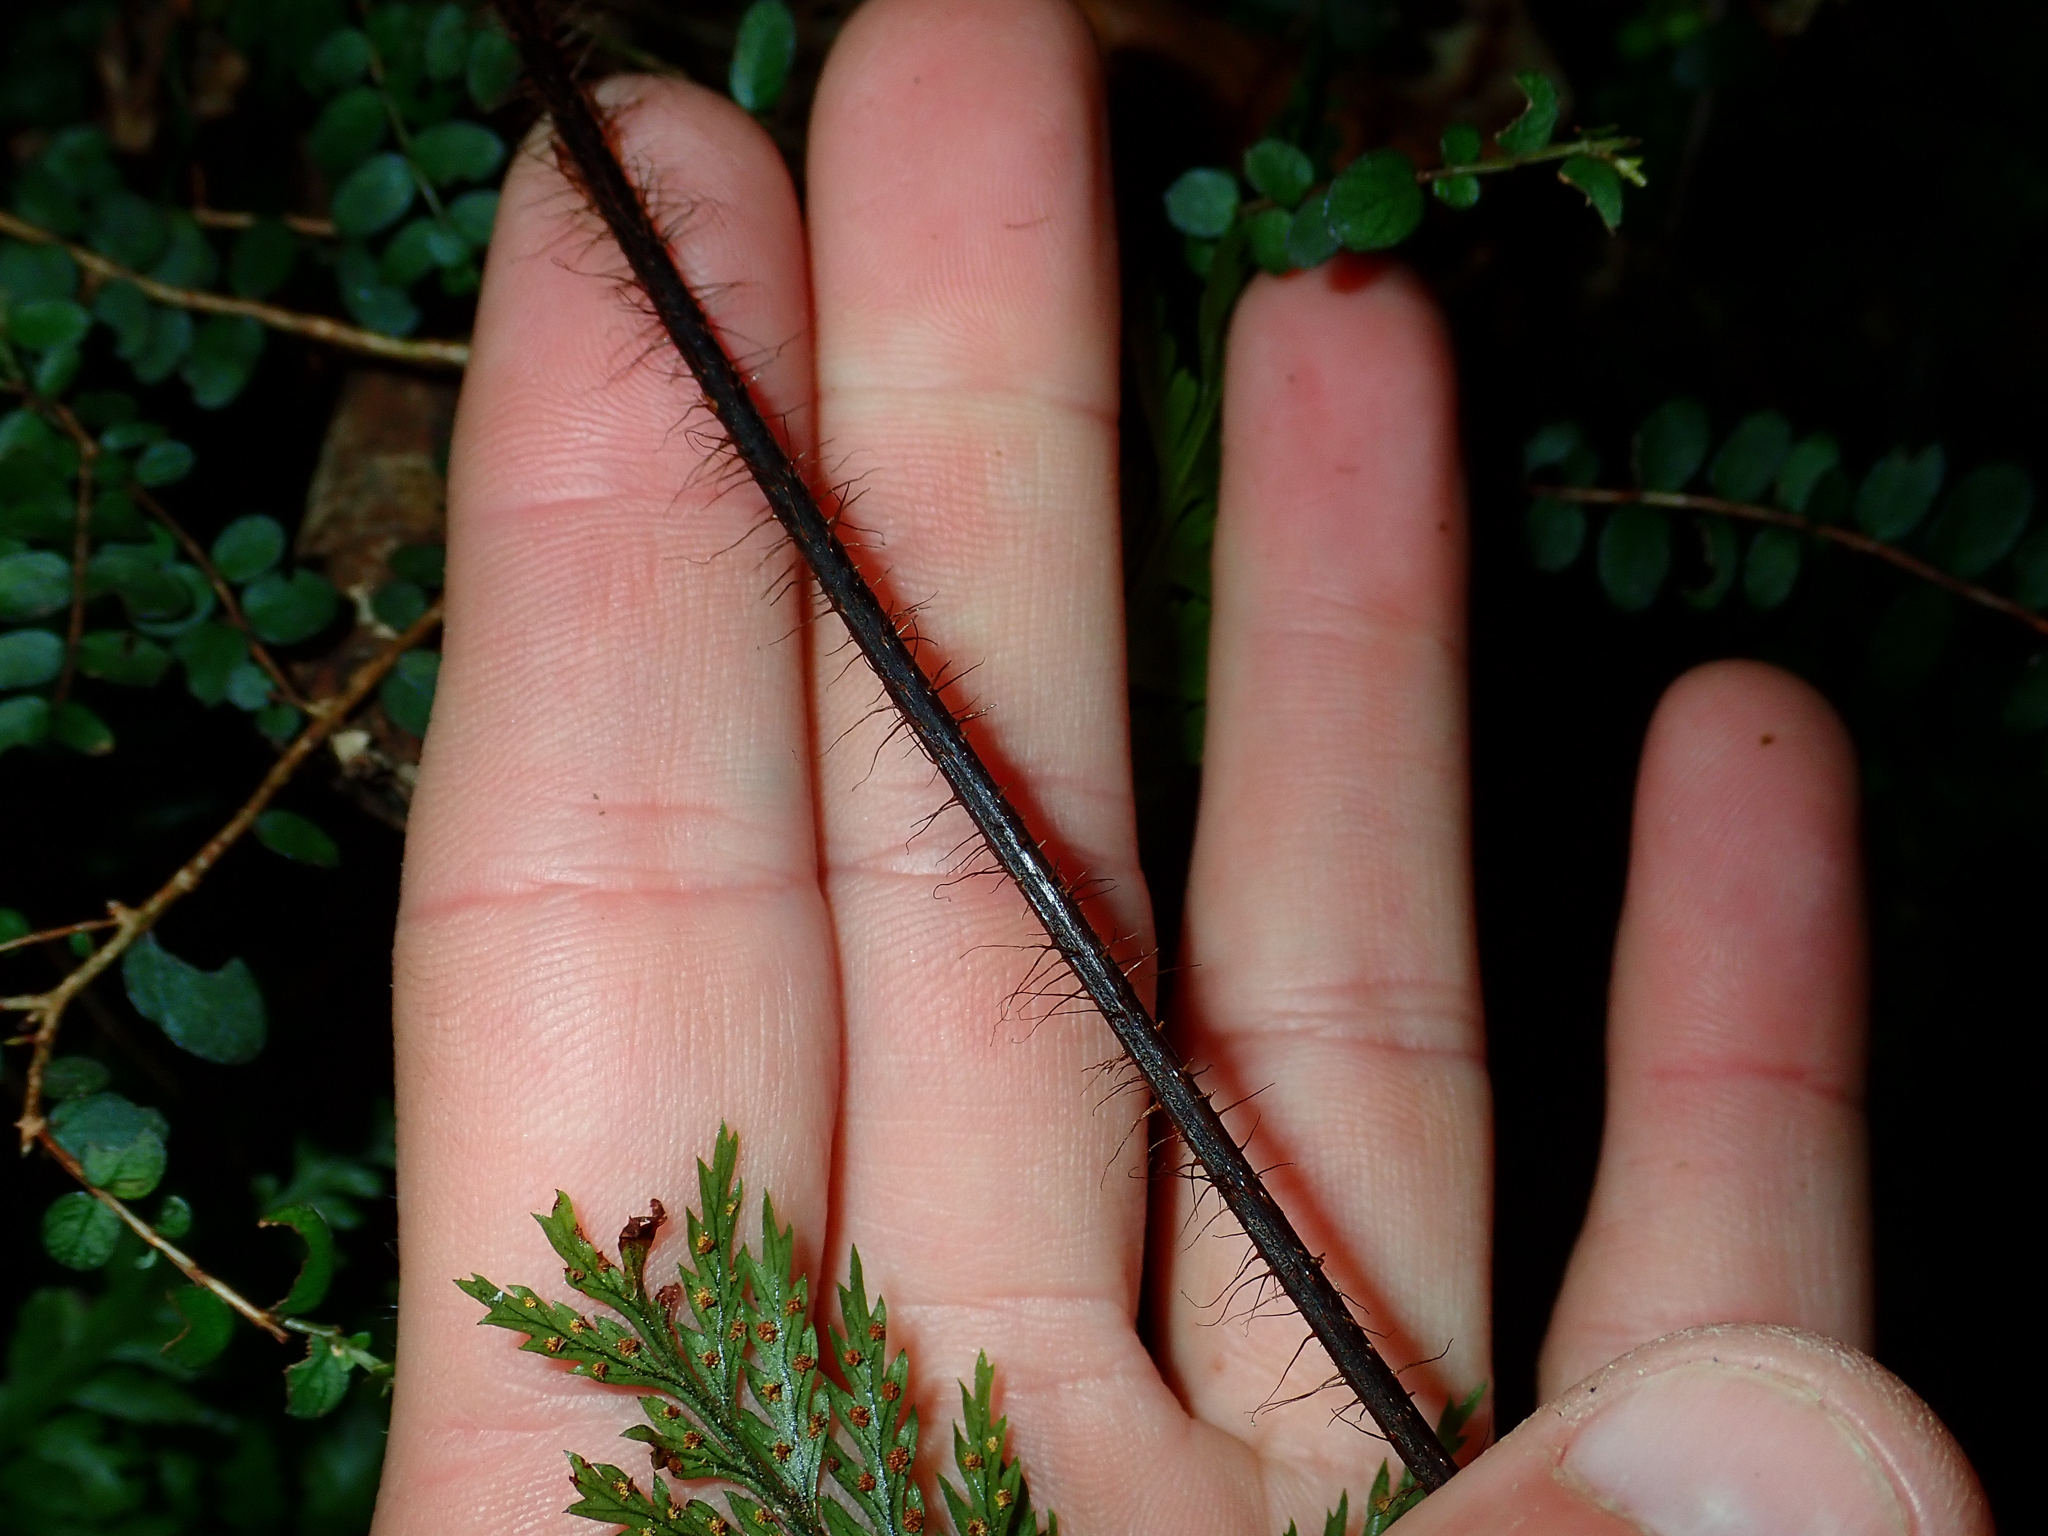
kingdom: Plantae
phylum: Tracheophyta
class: Polypodiopsida
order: Polypodiales
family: Dryopteridaceae
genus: Lastreopsis
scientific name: Lastreopsis hispida
